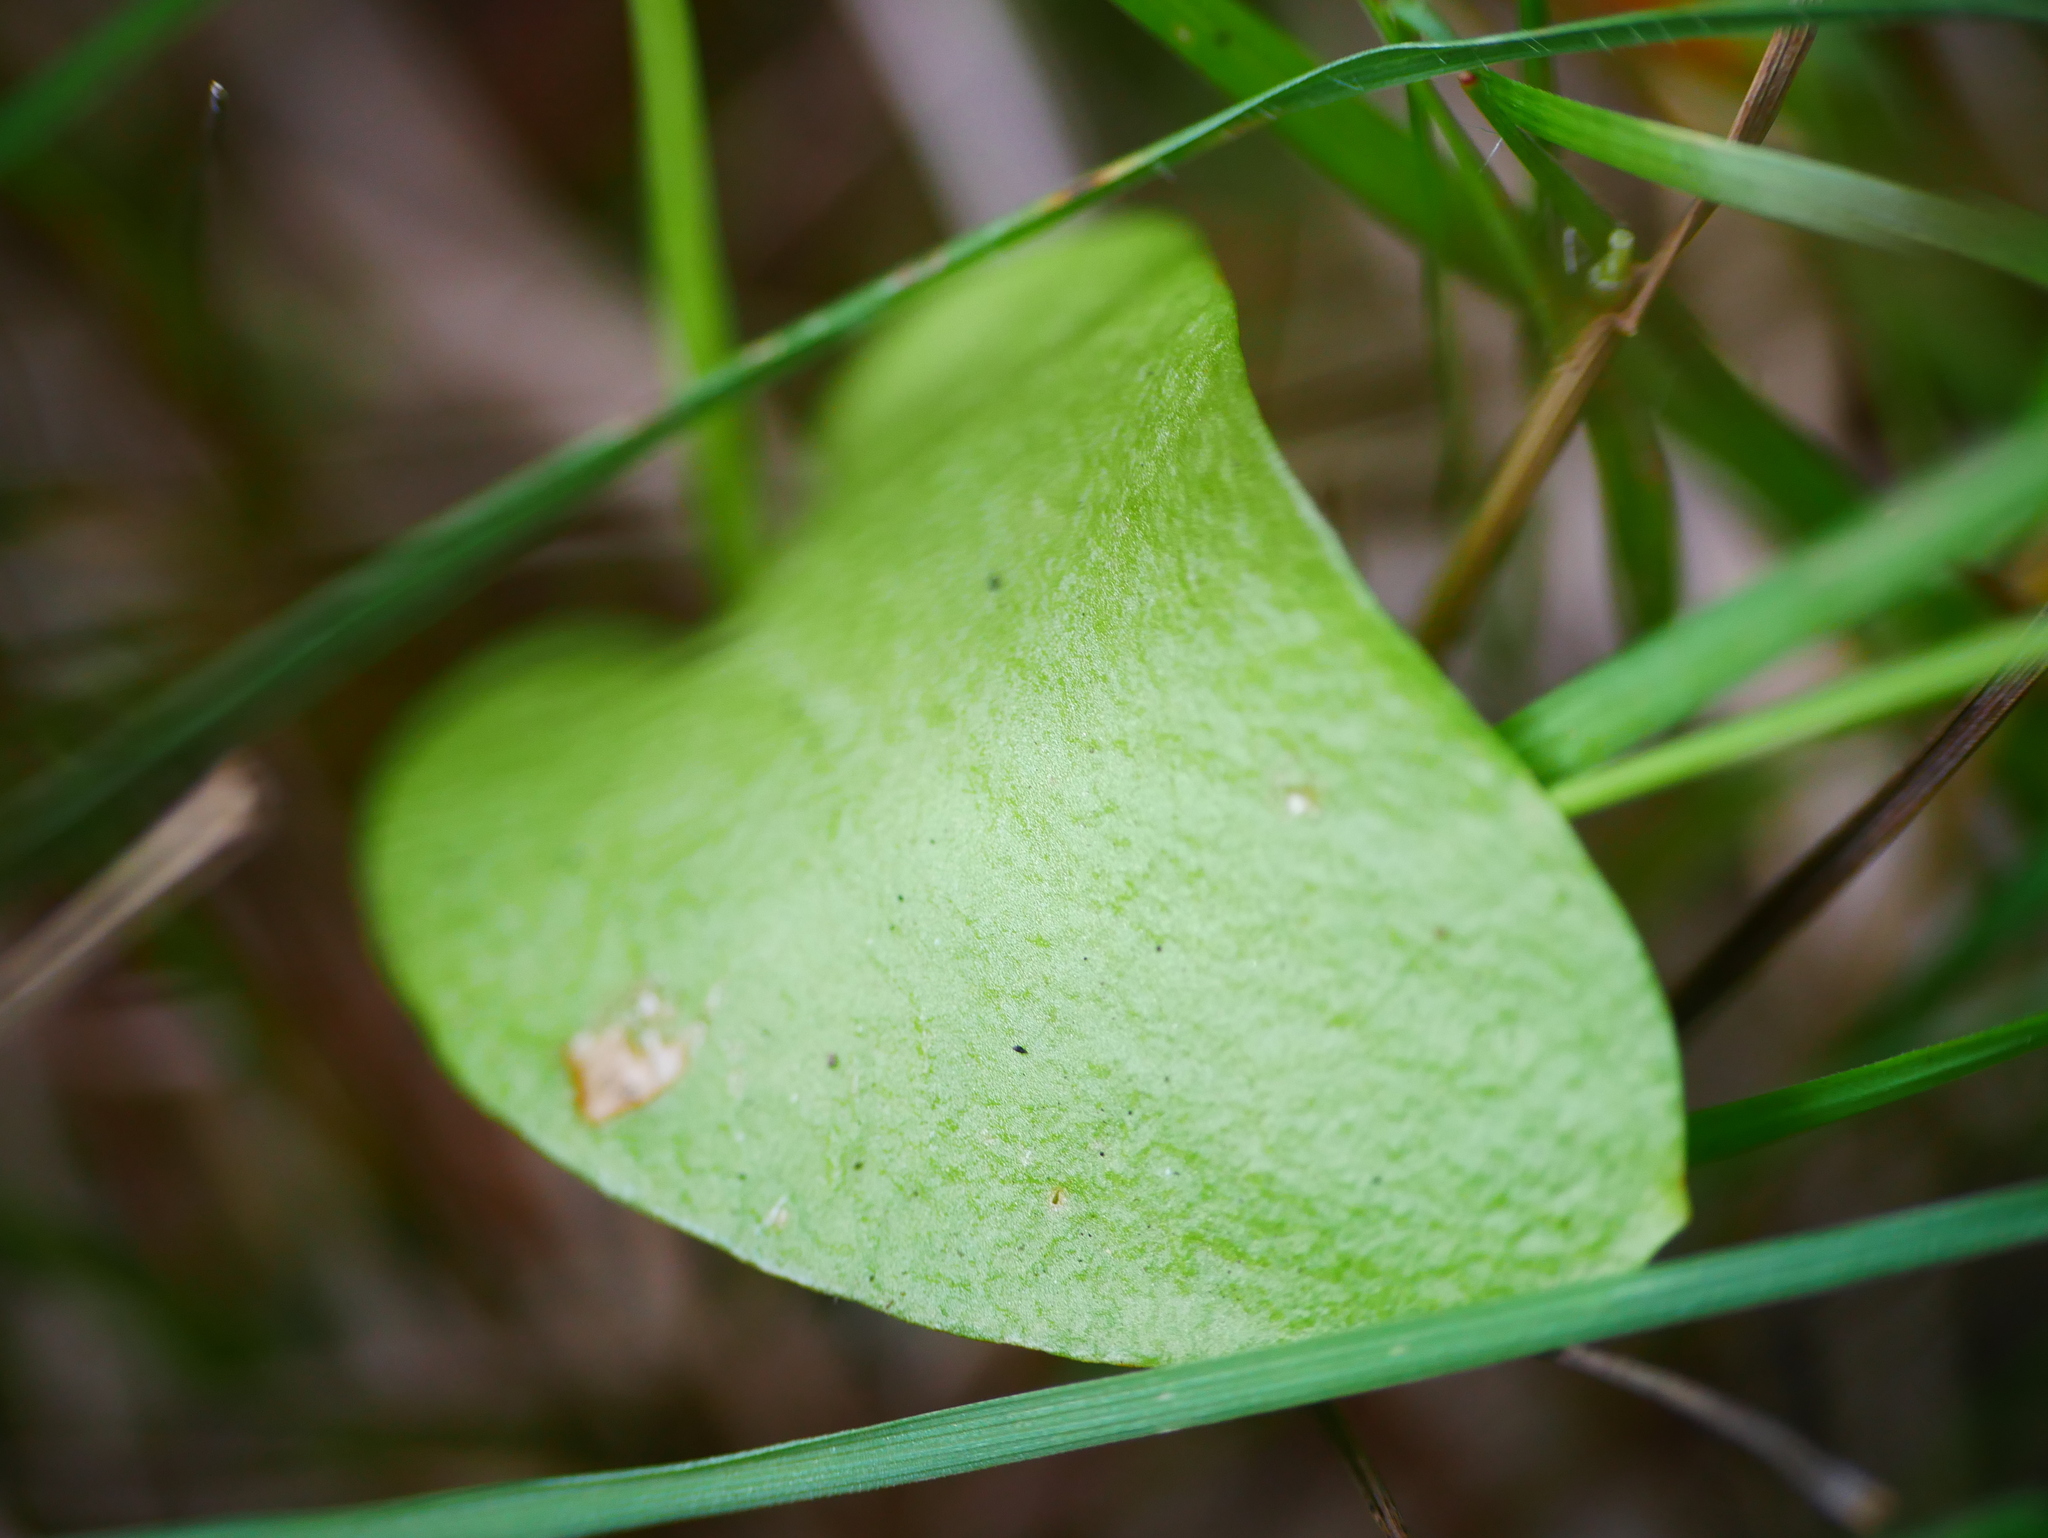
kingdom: Plantae
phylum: Tracheophyta
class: Polypodiopsida
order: Ophioglossales
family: Ophioglossaceae
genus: Ophioglossum
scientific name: Ophioglossum vulgatum
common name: Adder's-tongue
